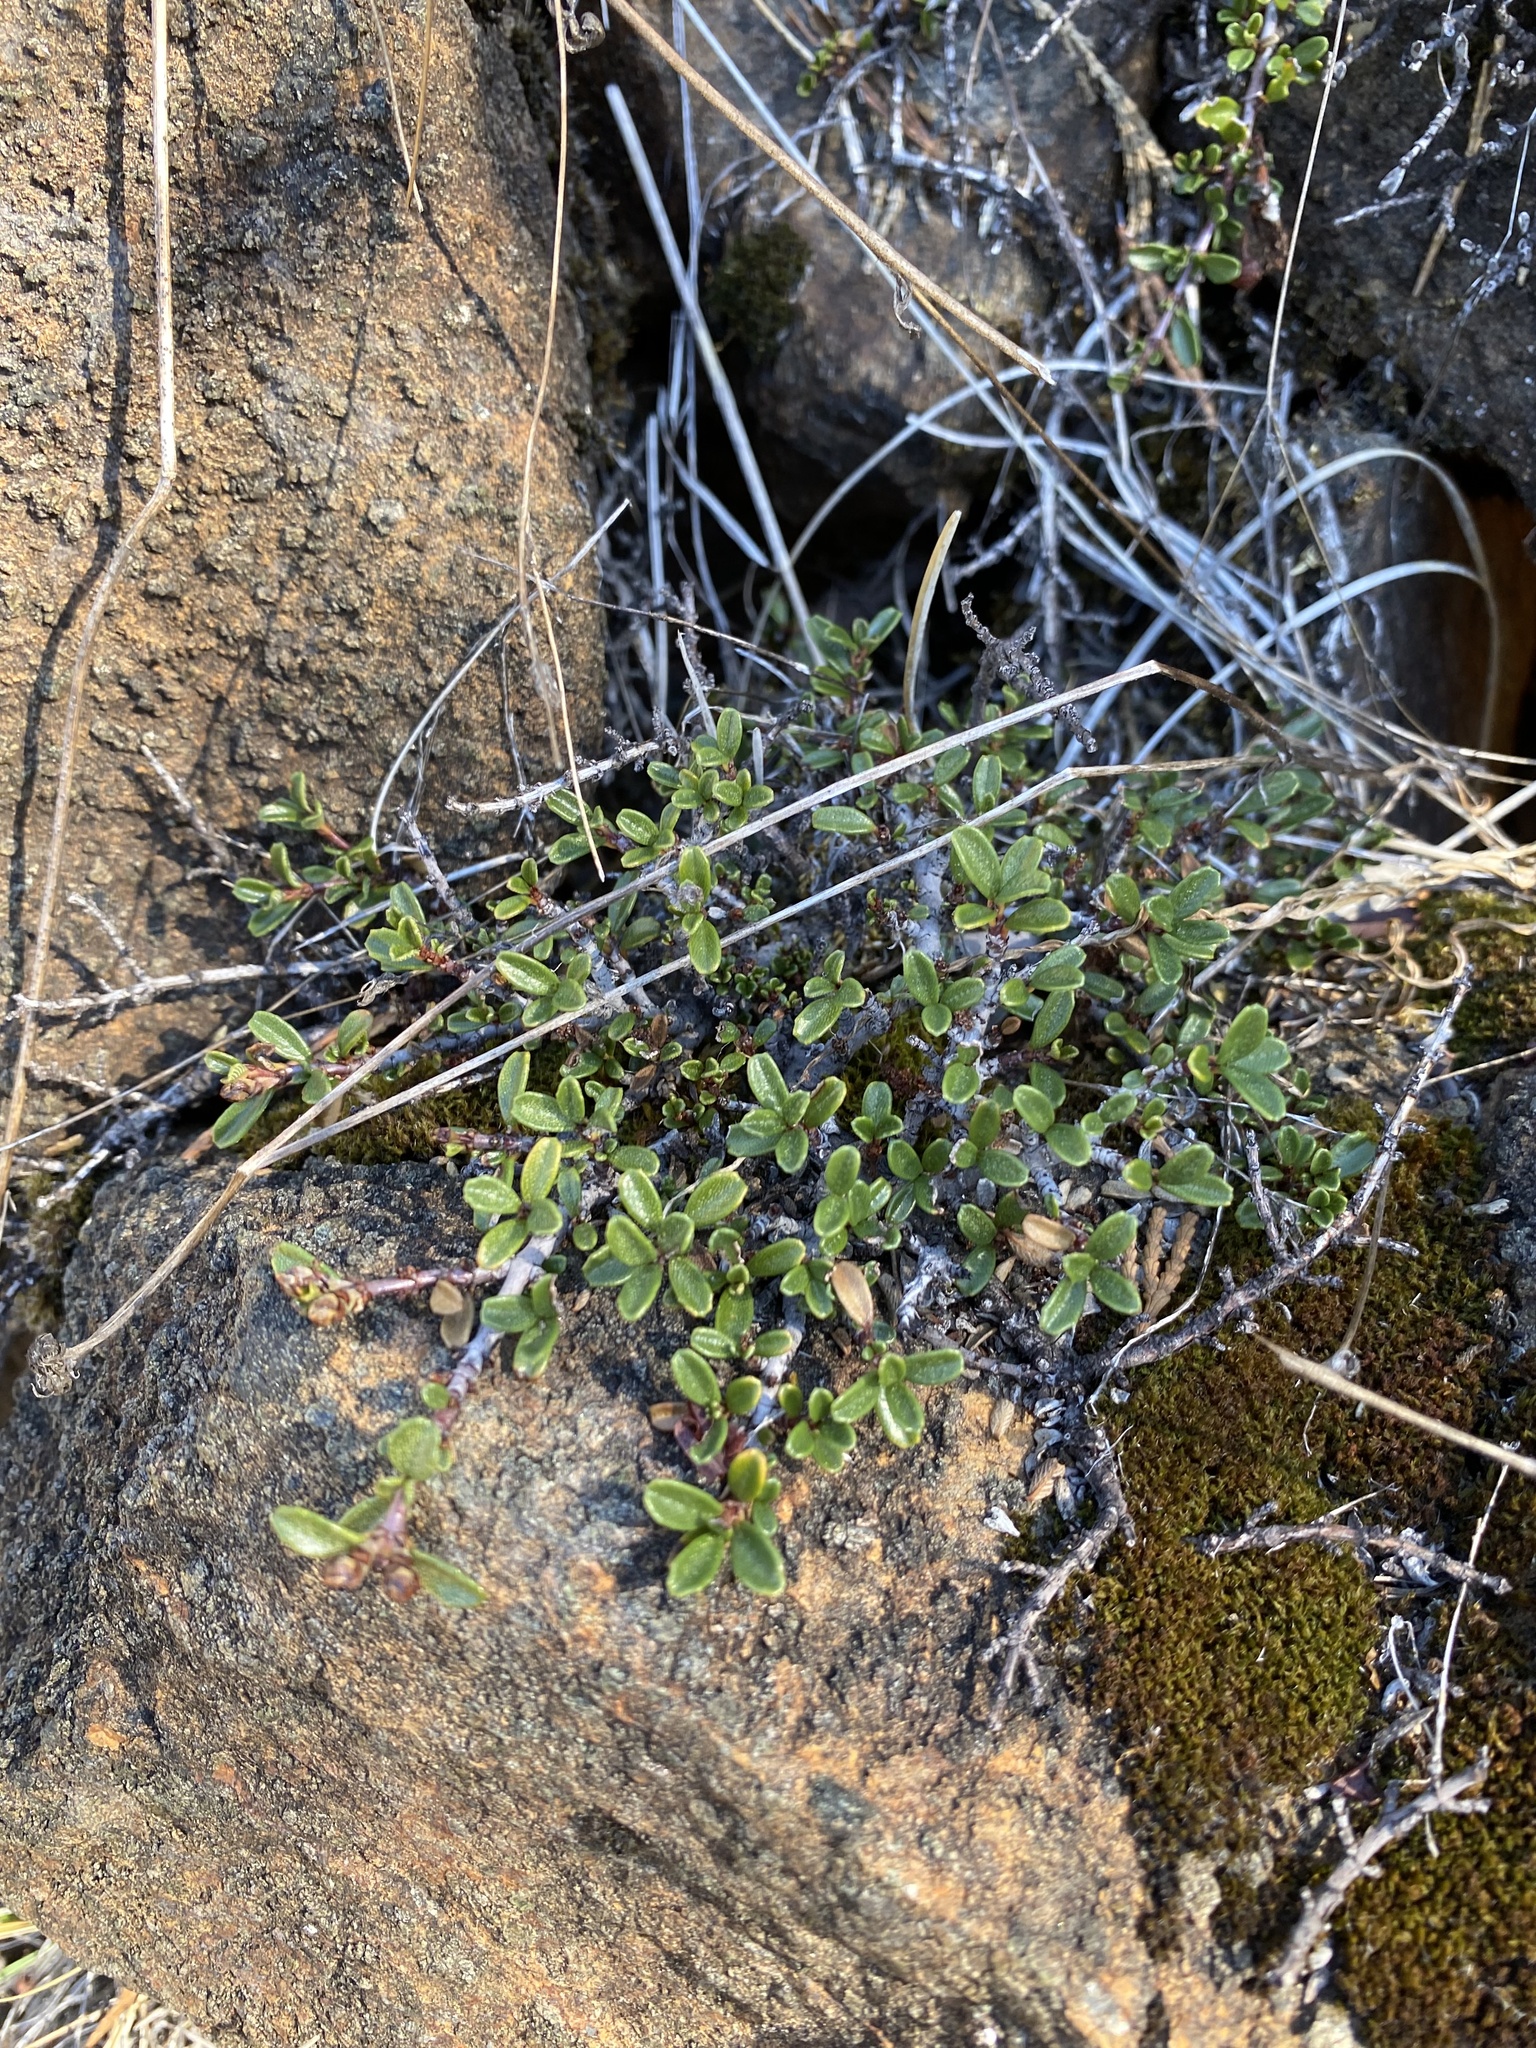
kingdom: Plantae
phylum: Tracheophyta
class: Magnoliopsida
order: Rosales
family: Rhamnaceae
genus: Ceanothus
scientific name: Ceanothus pumilus
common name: Siskiyou-mat
